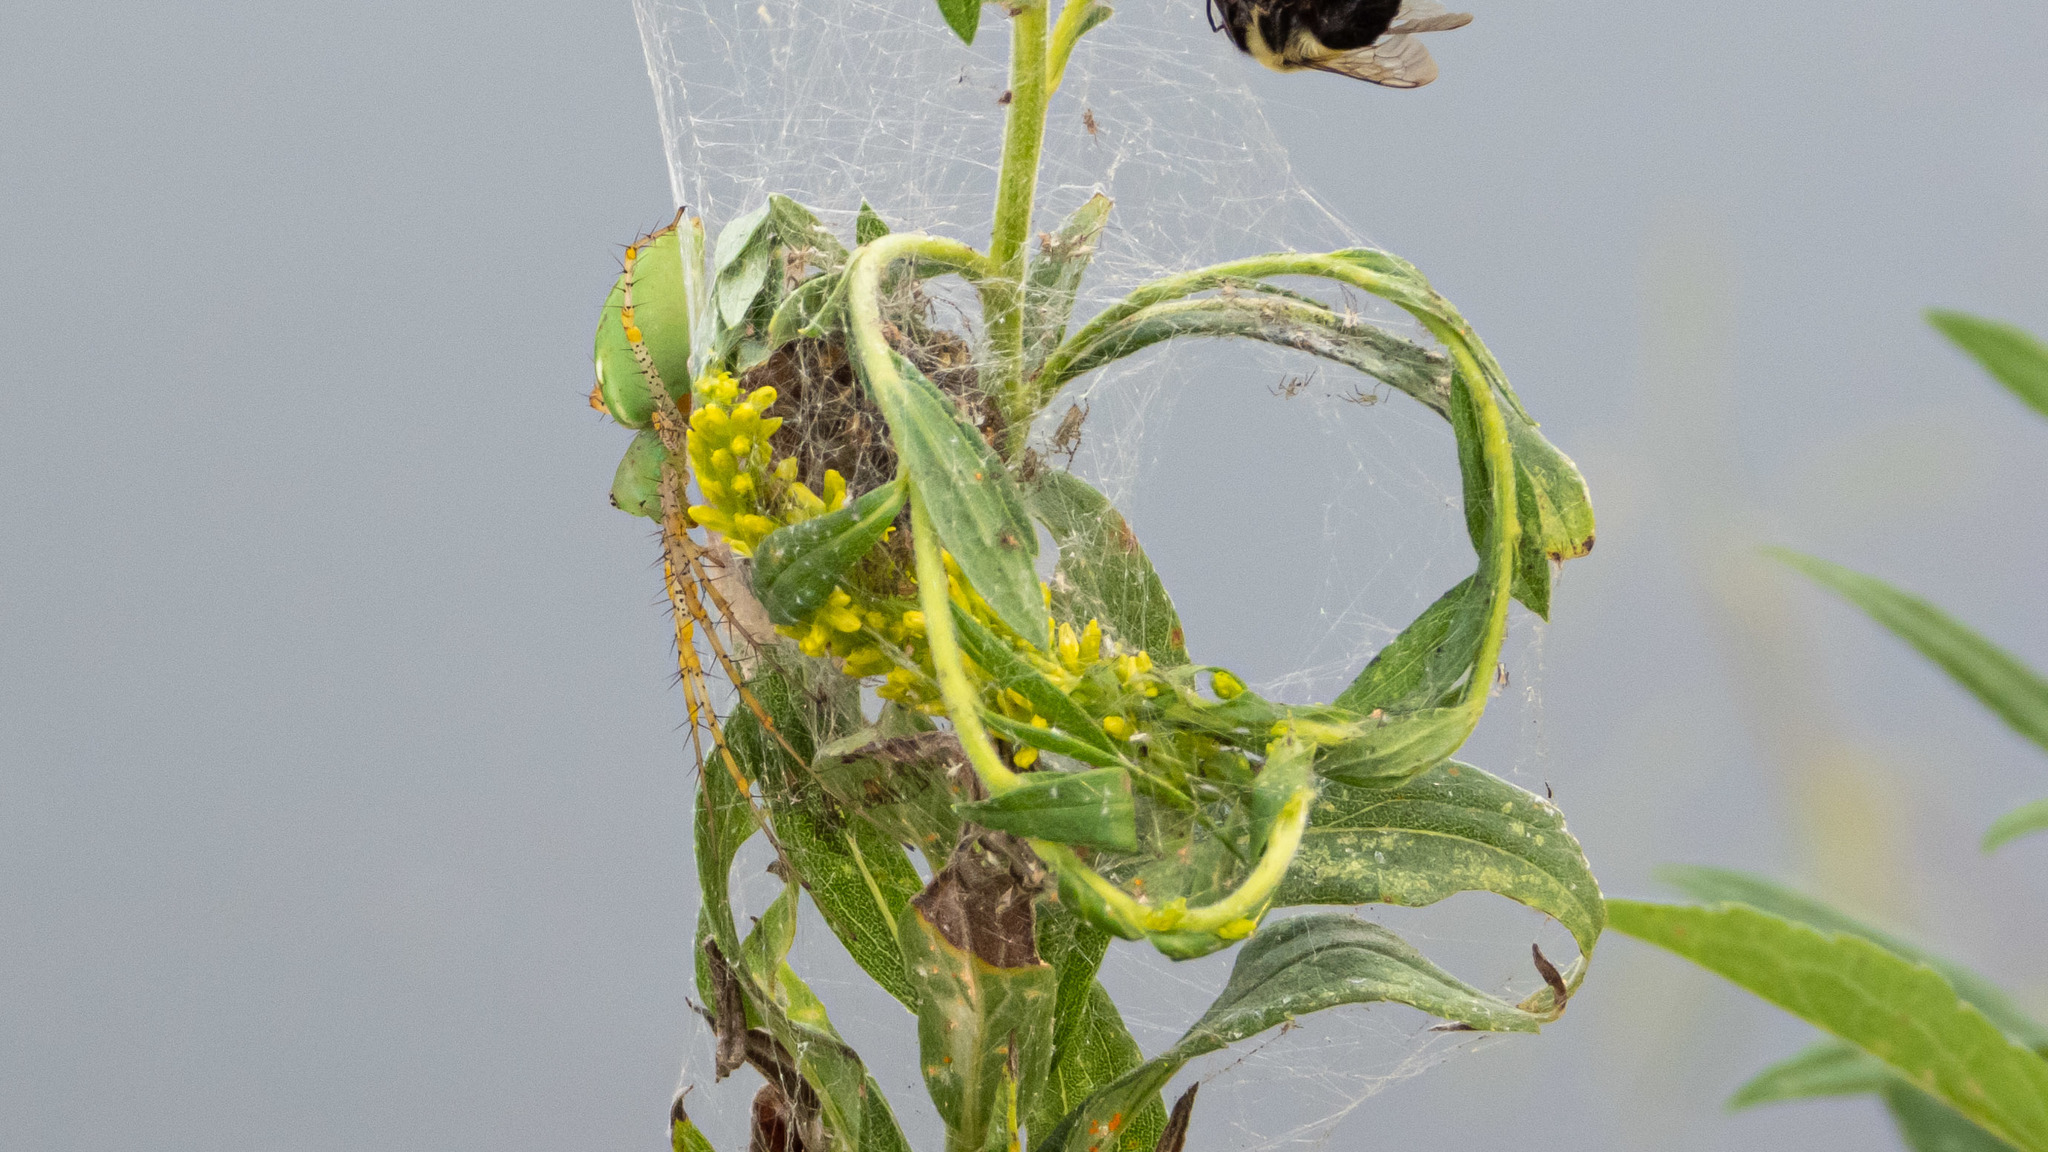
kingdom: Animalia
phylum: Arthropoda
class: Arachnida
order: Araneae
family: Oxyopidae
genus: Peucetia
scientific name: Peucetia viridans
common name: Lynx spiders
